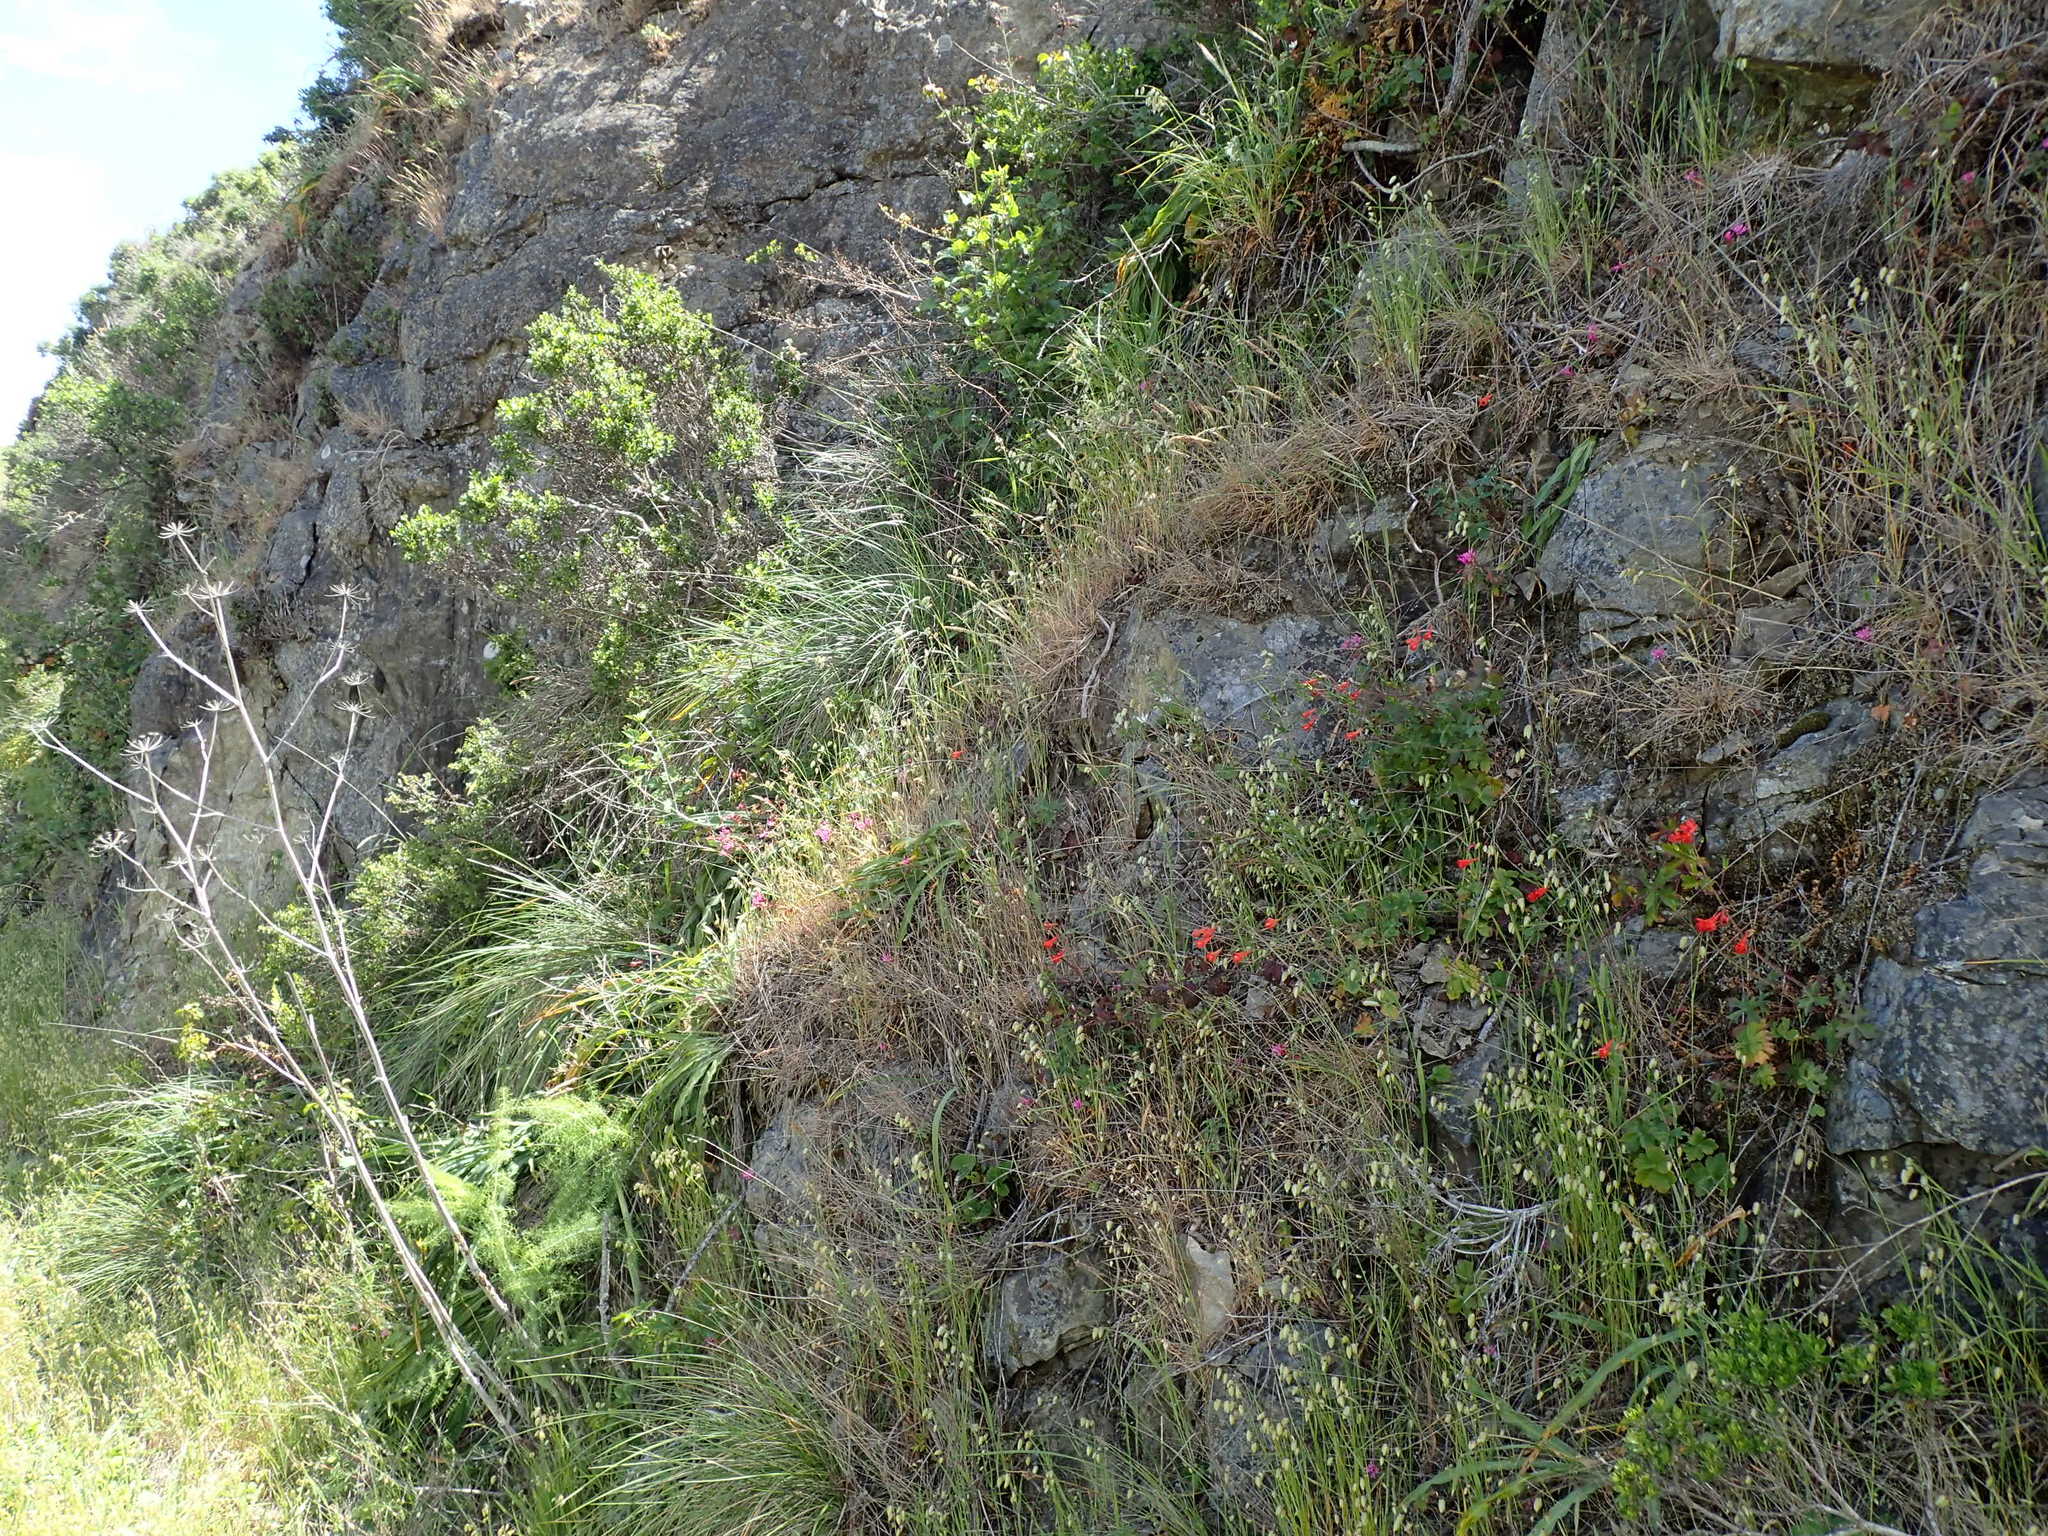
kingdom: Plantae
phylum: Tracheophyta
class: Magnoliopsida
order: Myrtales
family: Onagraceae
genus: Clarkia
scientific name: Clarkia concinna
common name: Red-ribbons
